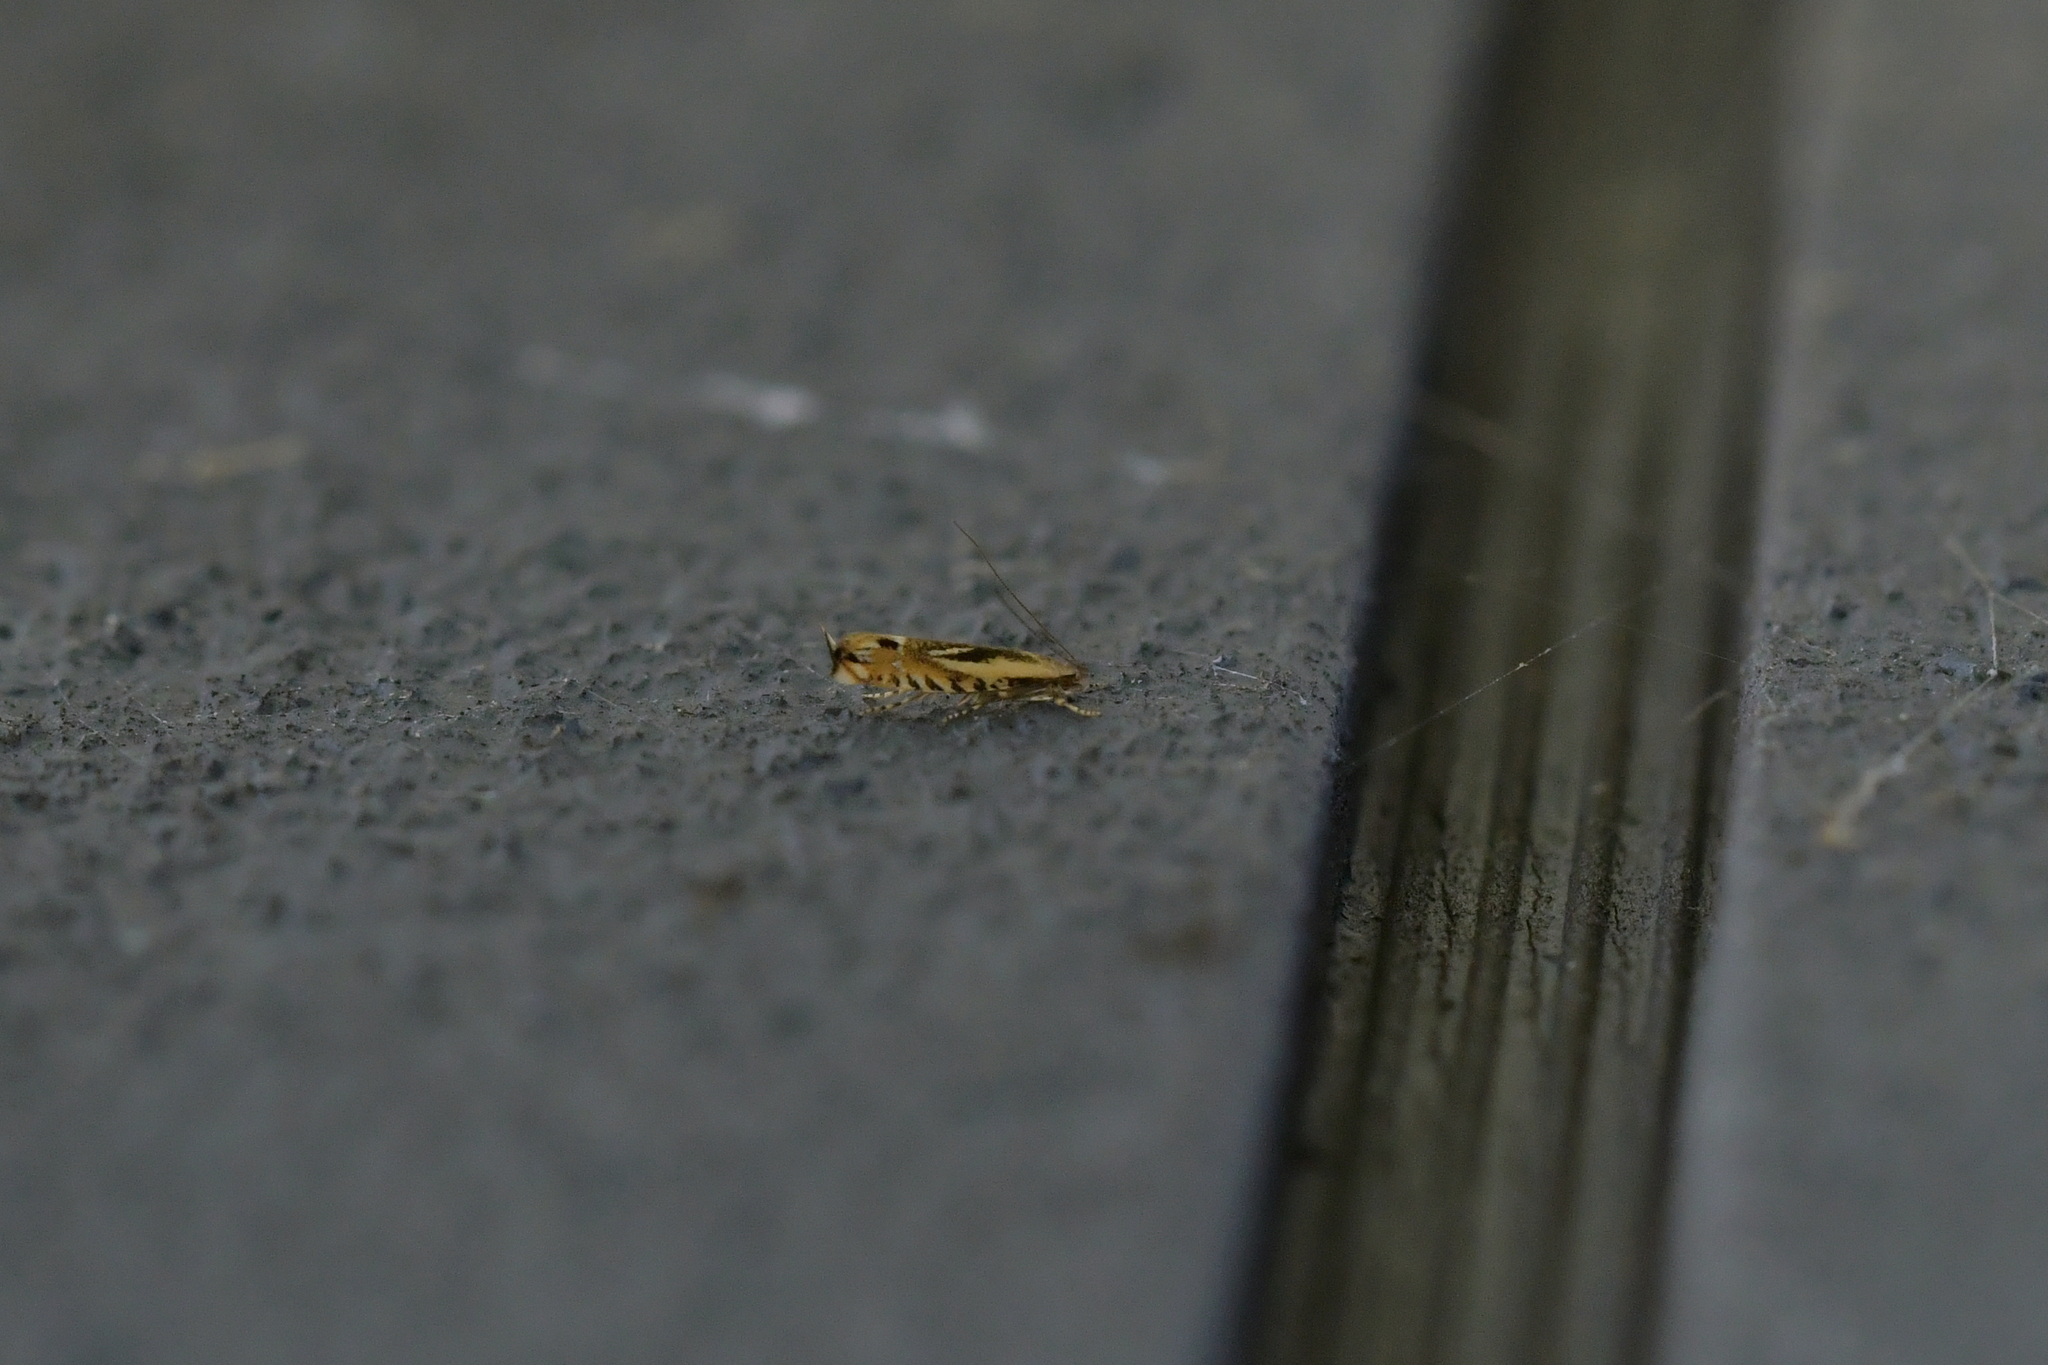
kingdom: Animalia
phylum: Arthropoda
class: Insecta
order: Lepidoptera
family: Tineidae
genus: Erechthias
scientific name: Erechthias decoranda
